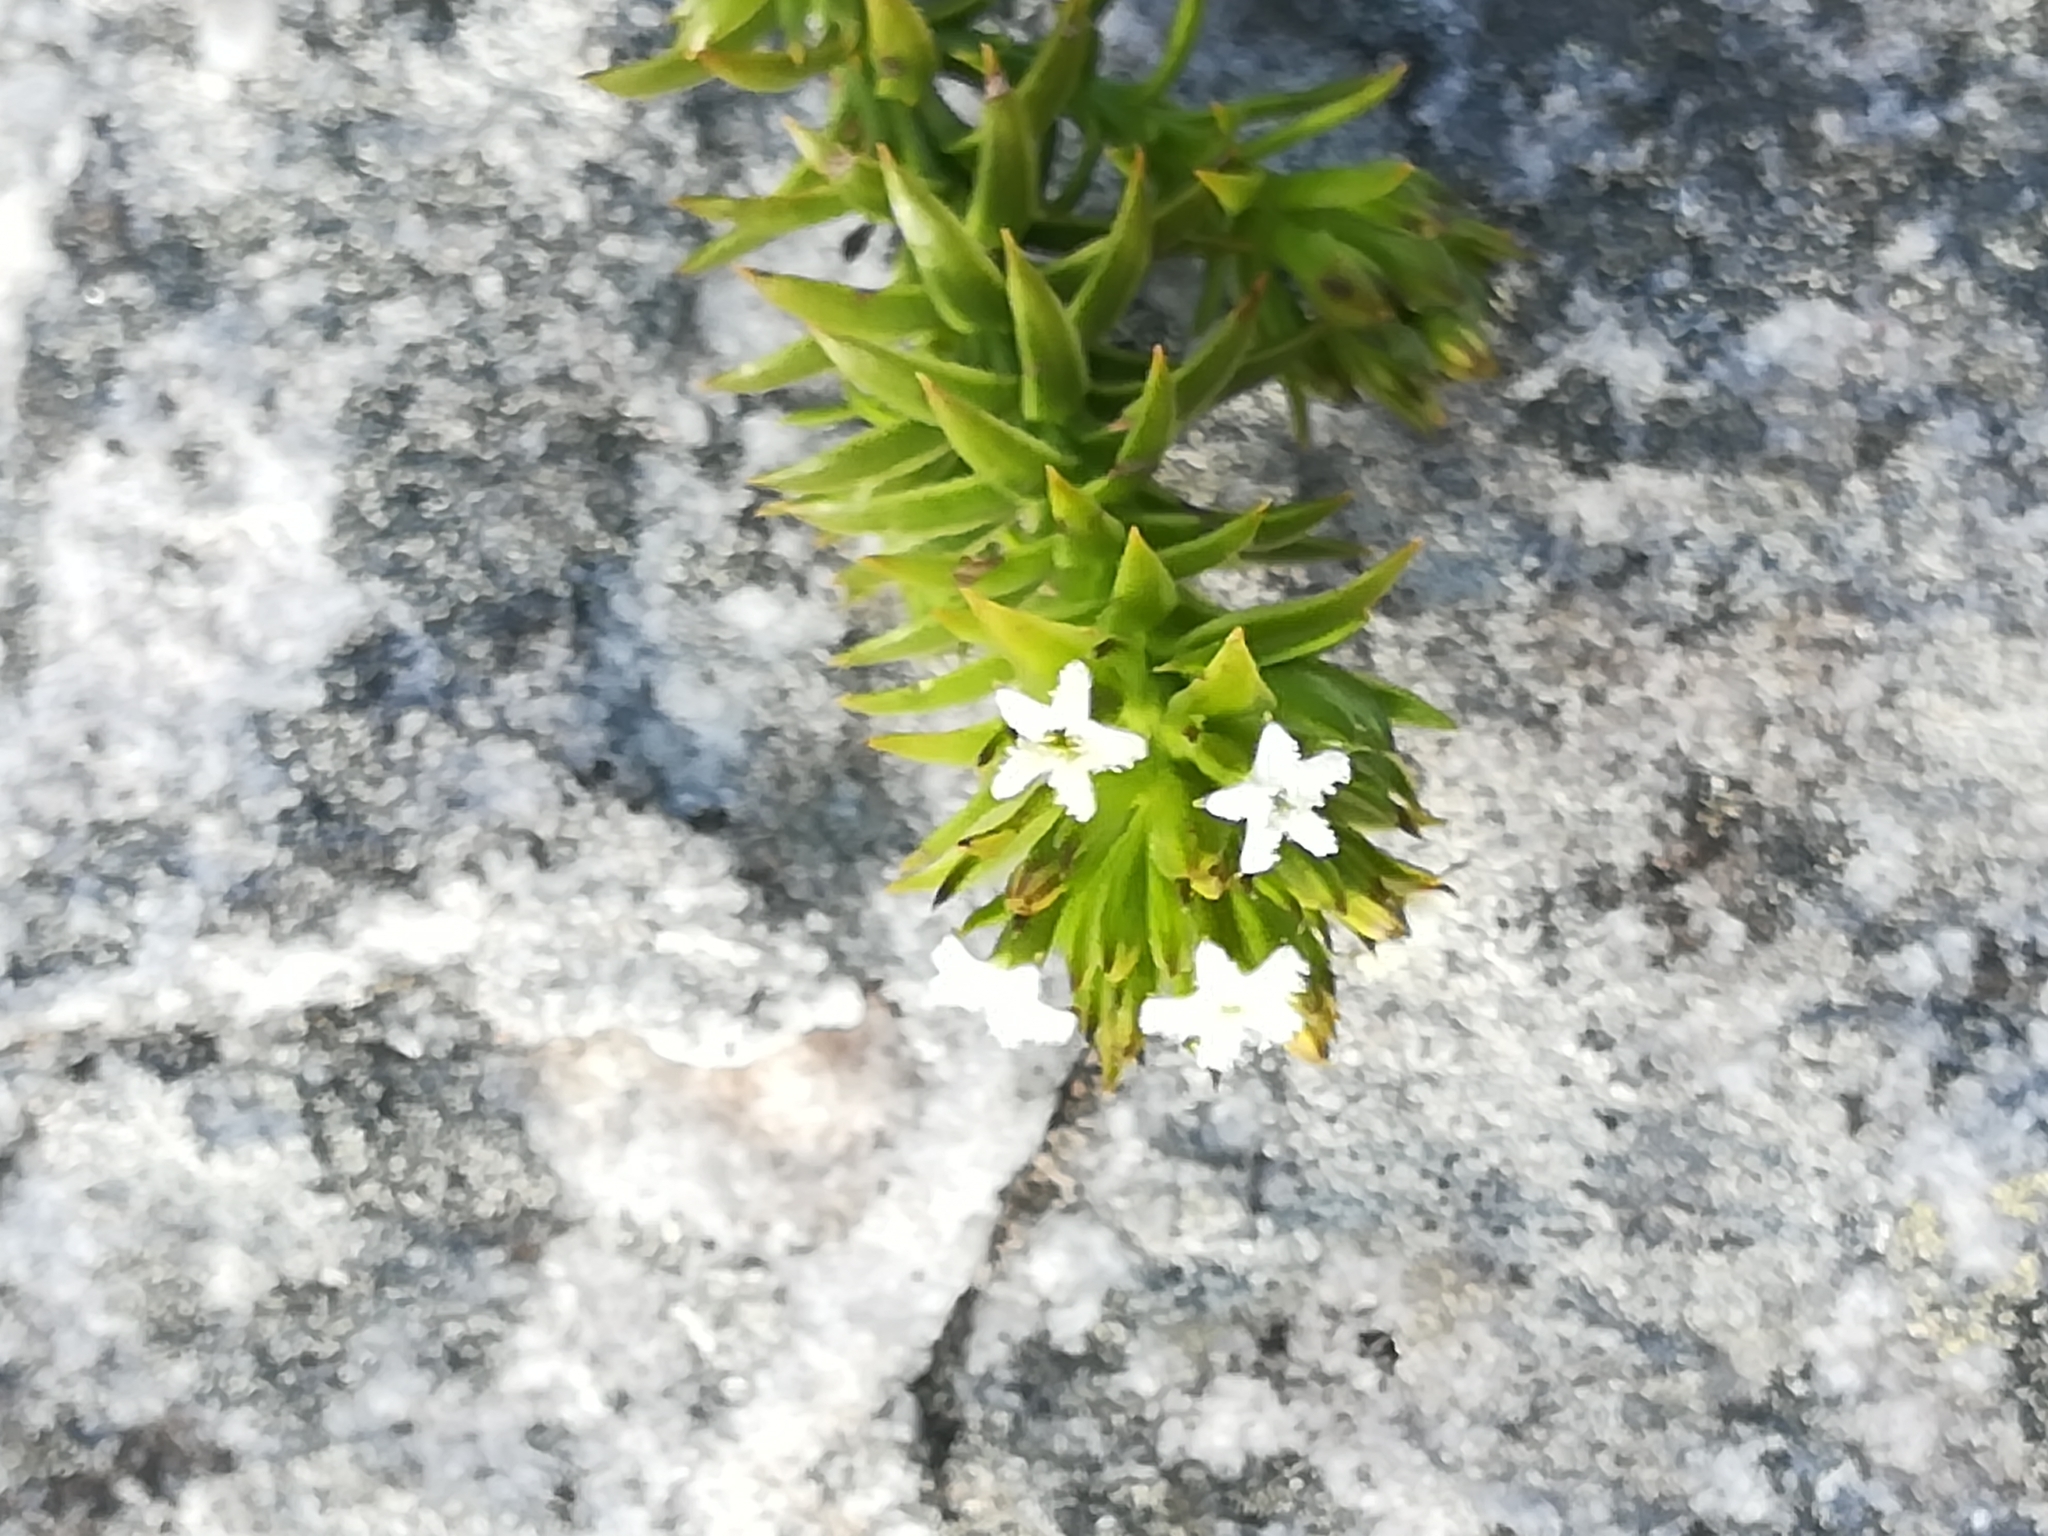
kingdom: Plantae
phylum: Tracheophyta
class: Magnoliopsida
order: Santalales
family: Thesiaceae
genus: Thesium
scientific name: Thesium viridifolium
